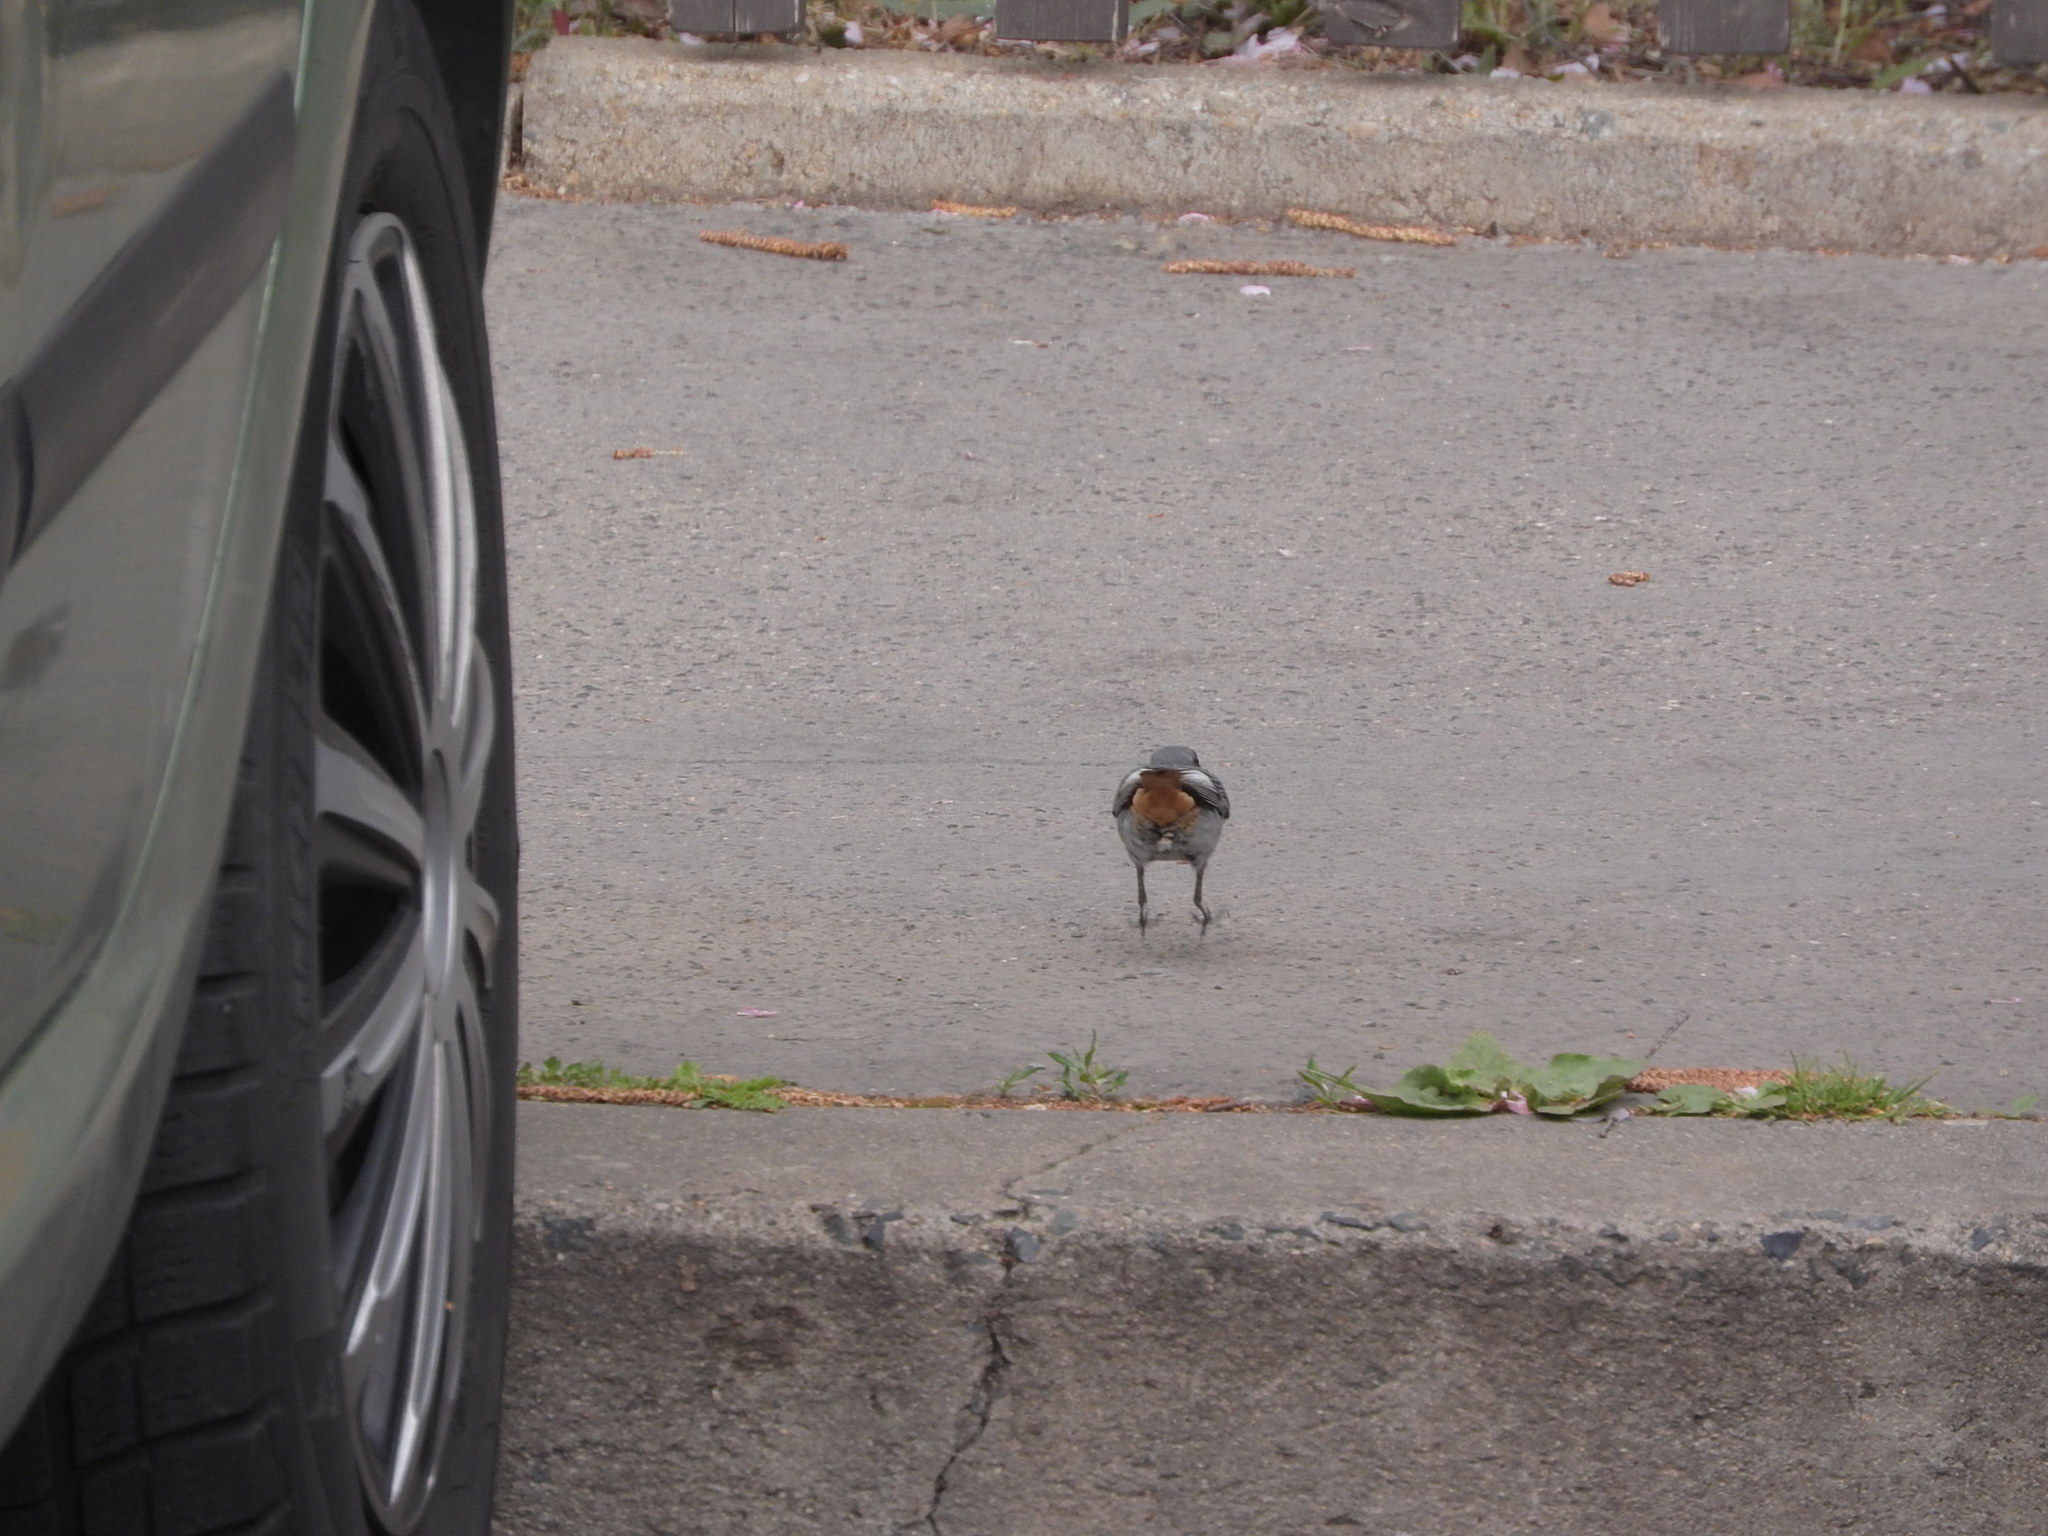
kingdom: Animalia
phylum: Chordata
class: Aves
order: Passeriformes
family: Muscicapidae
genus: Phoenicurus
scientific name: Phoenicurus ochruros
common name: Black redstart
